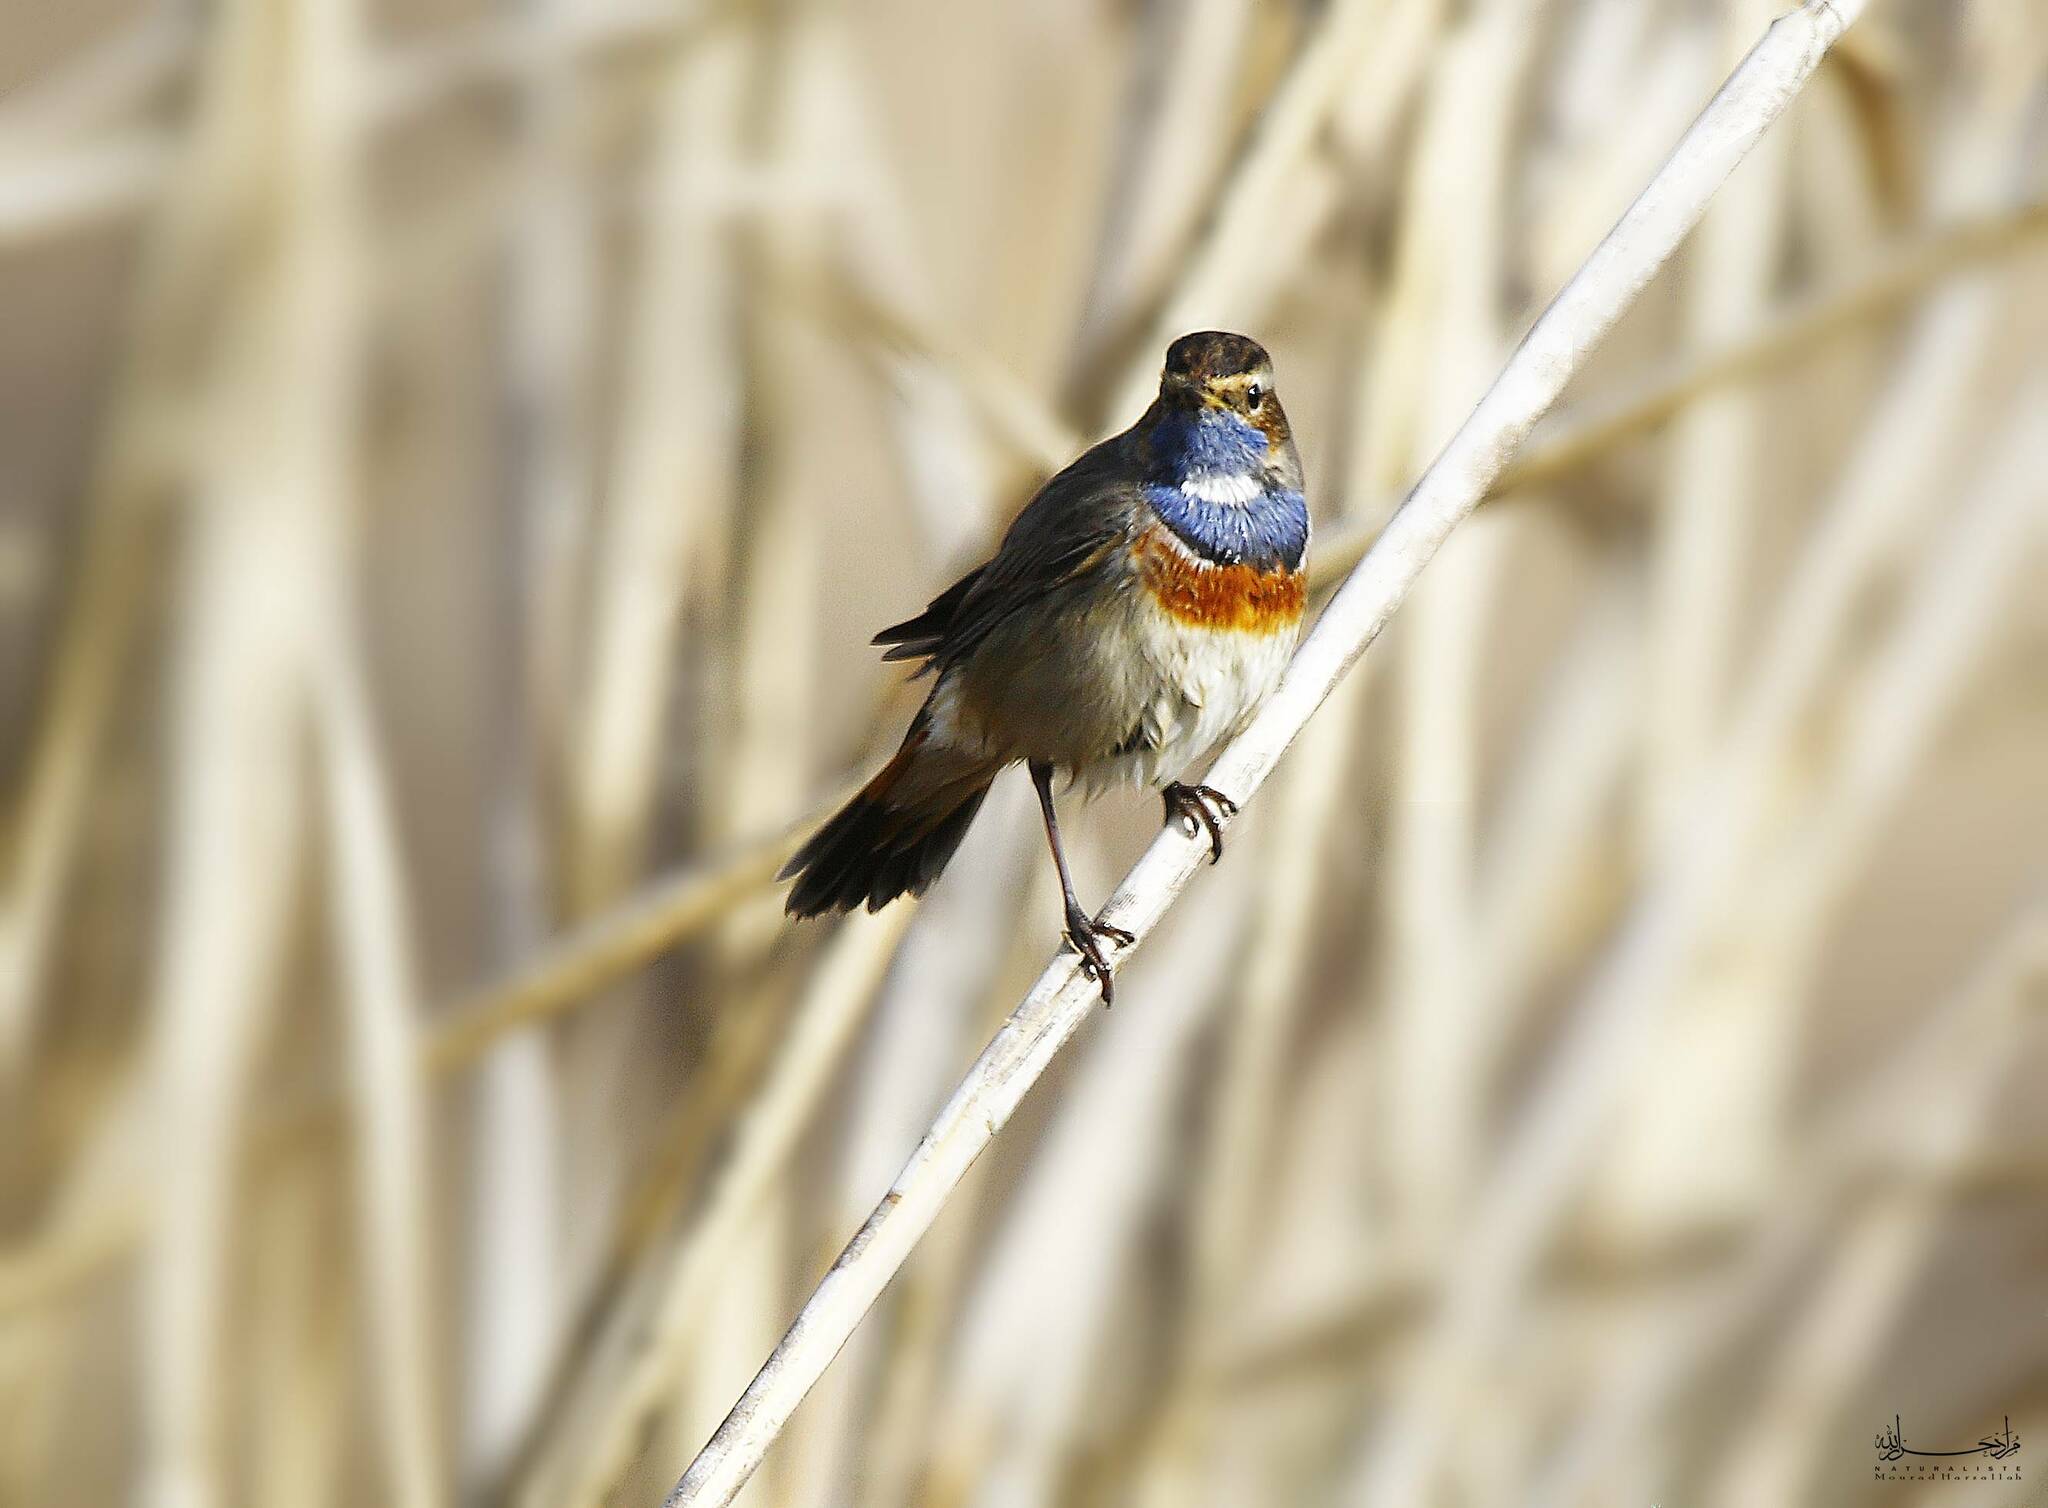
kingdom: Animalia
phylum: Chordata
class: Aves
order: Passeriformes
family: Muscicapidae
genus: Luscinia
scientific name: Luscinia svecica
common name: Bluethroat
